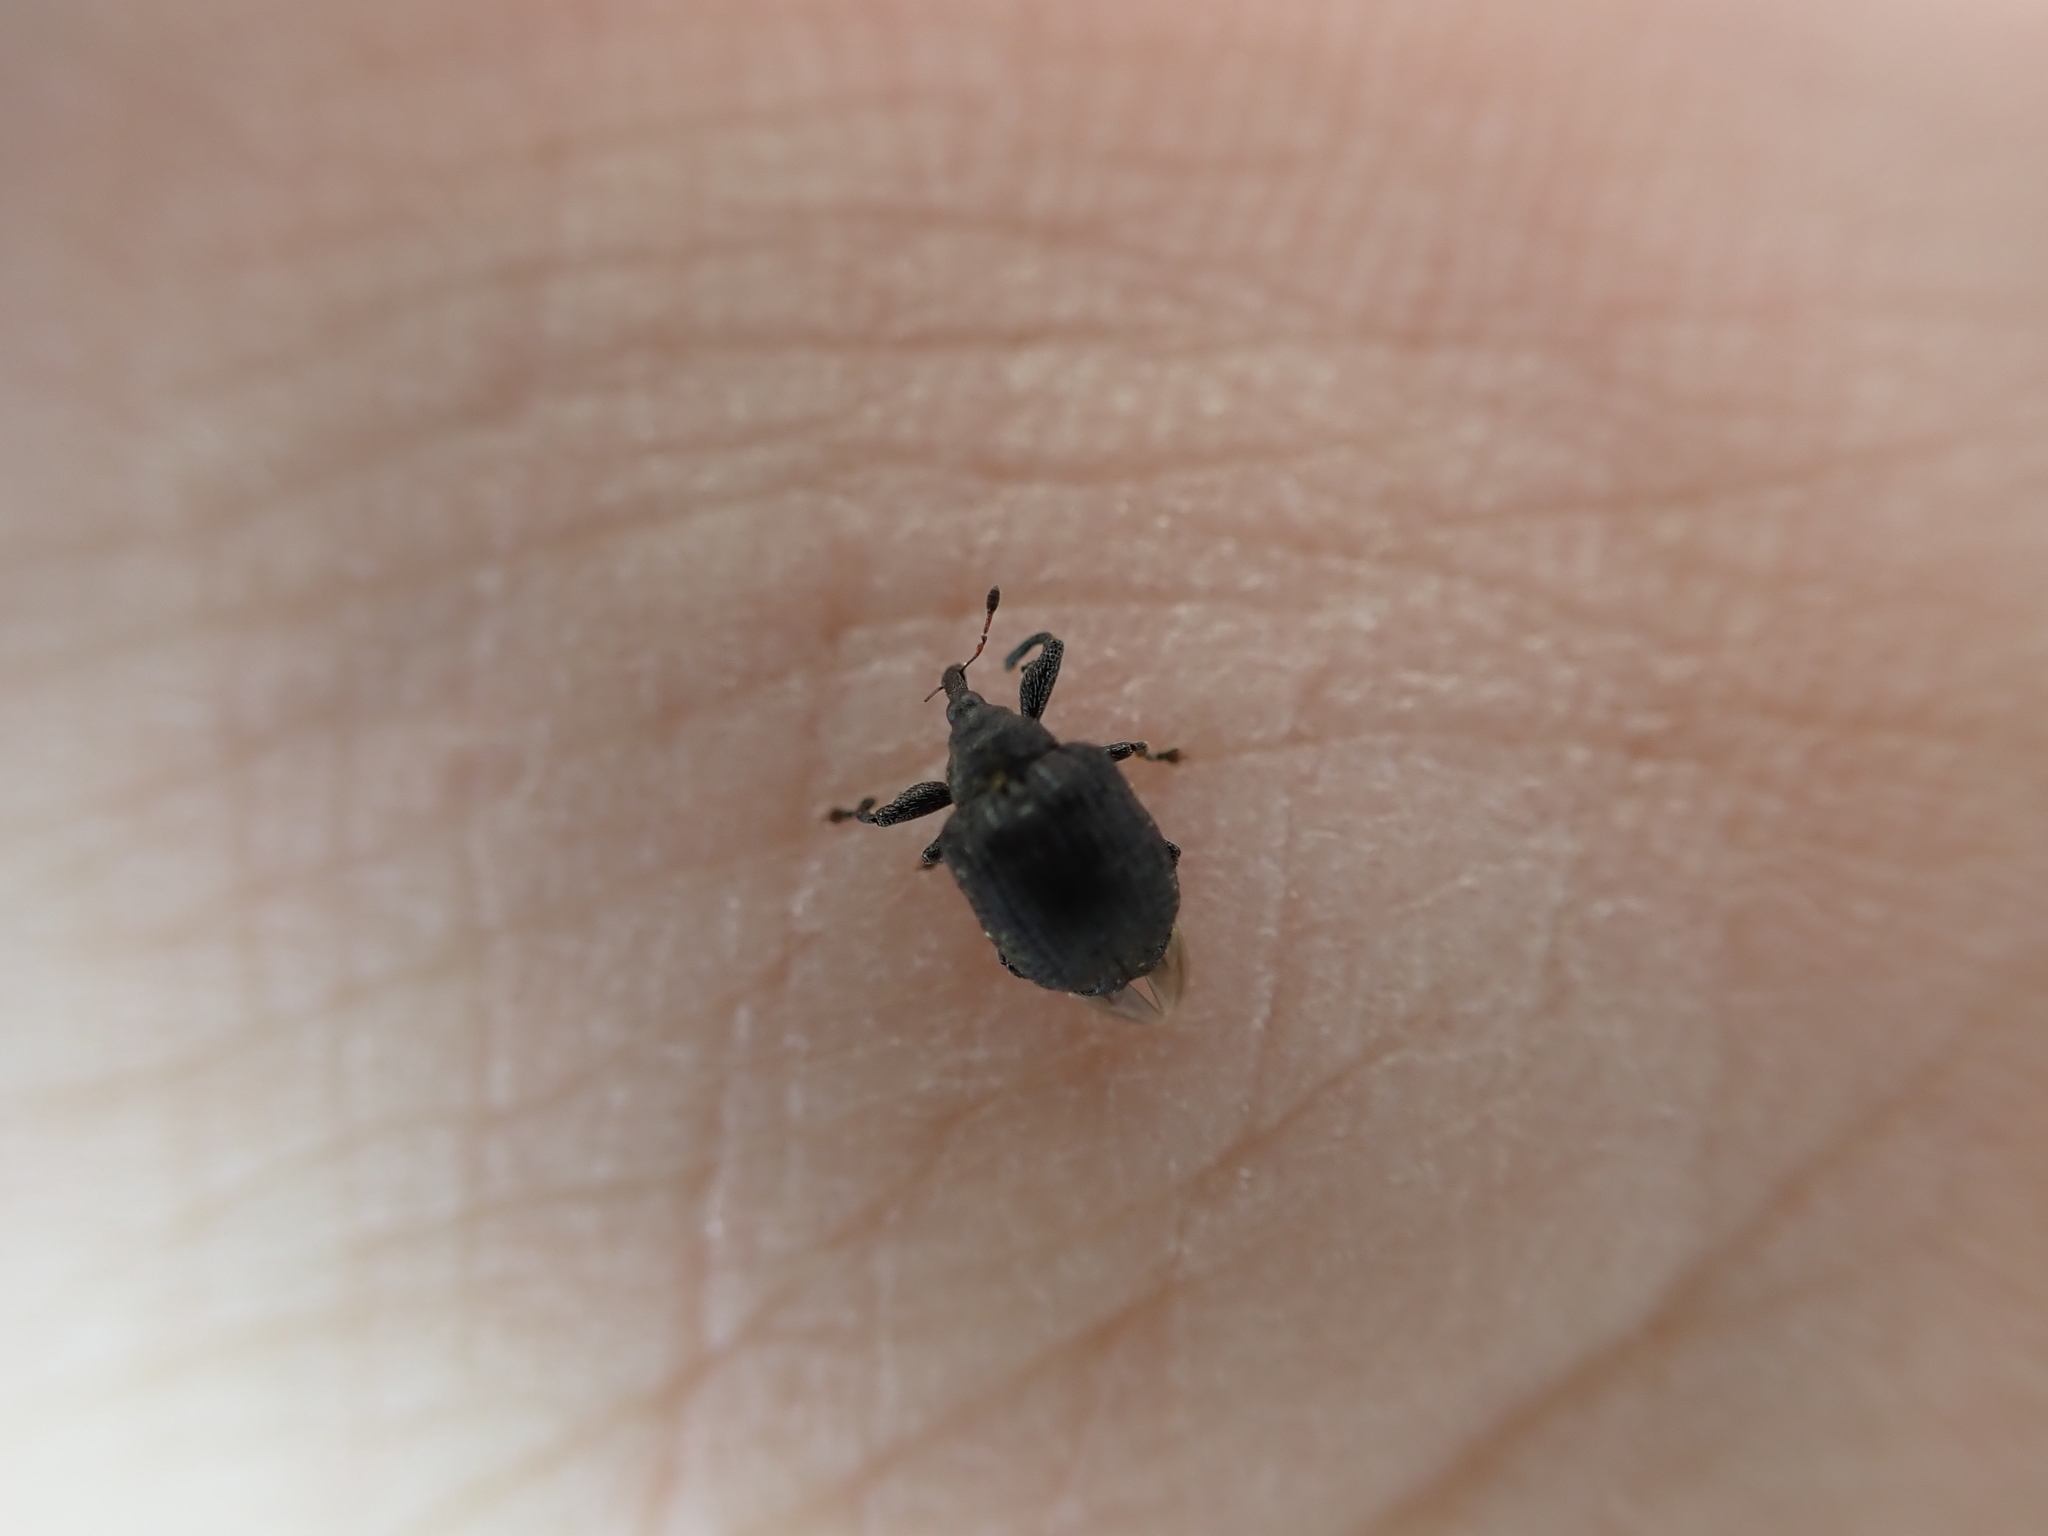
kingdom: Animalia
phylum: Arthropoda
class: Insecta
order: Coleoptera
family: Curculionidae
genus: Odontopus
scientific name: Odontopus calceatus
